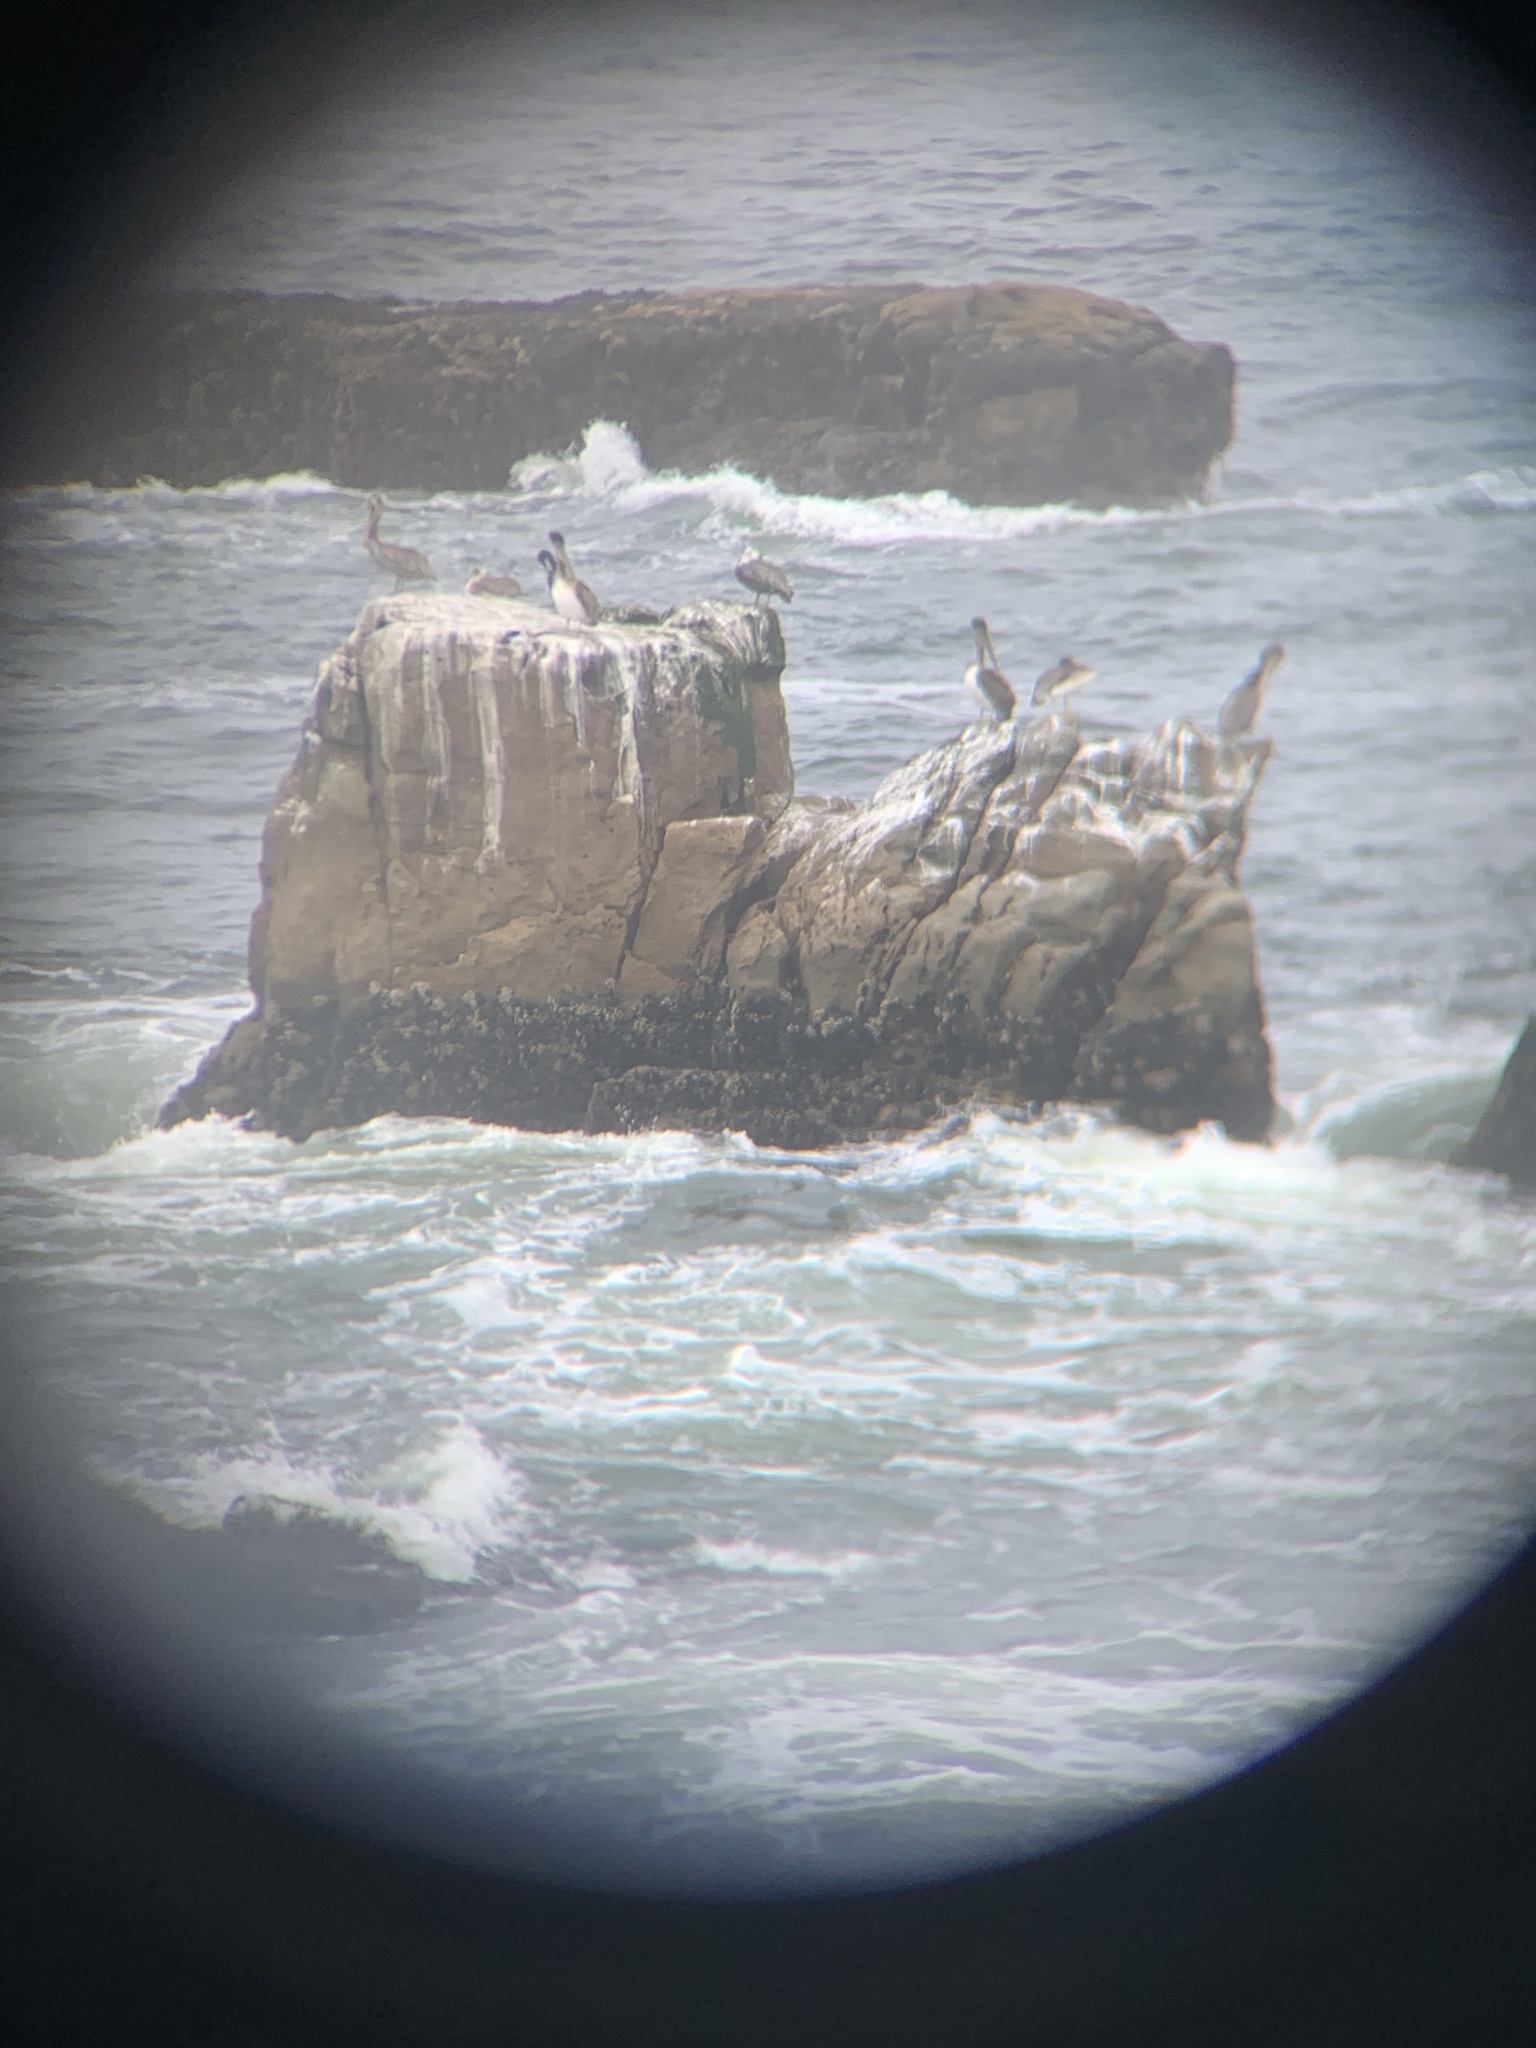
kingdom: Animalia
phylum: Chordata
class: Aves
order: Pelecaniformes
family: Pelecanidae
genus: Pelecanus
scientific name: Pelecanus occidentalis
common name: Brown pelican
